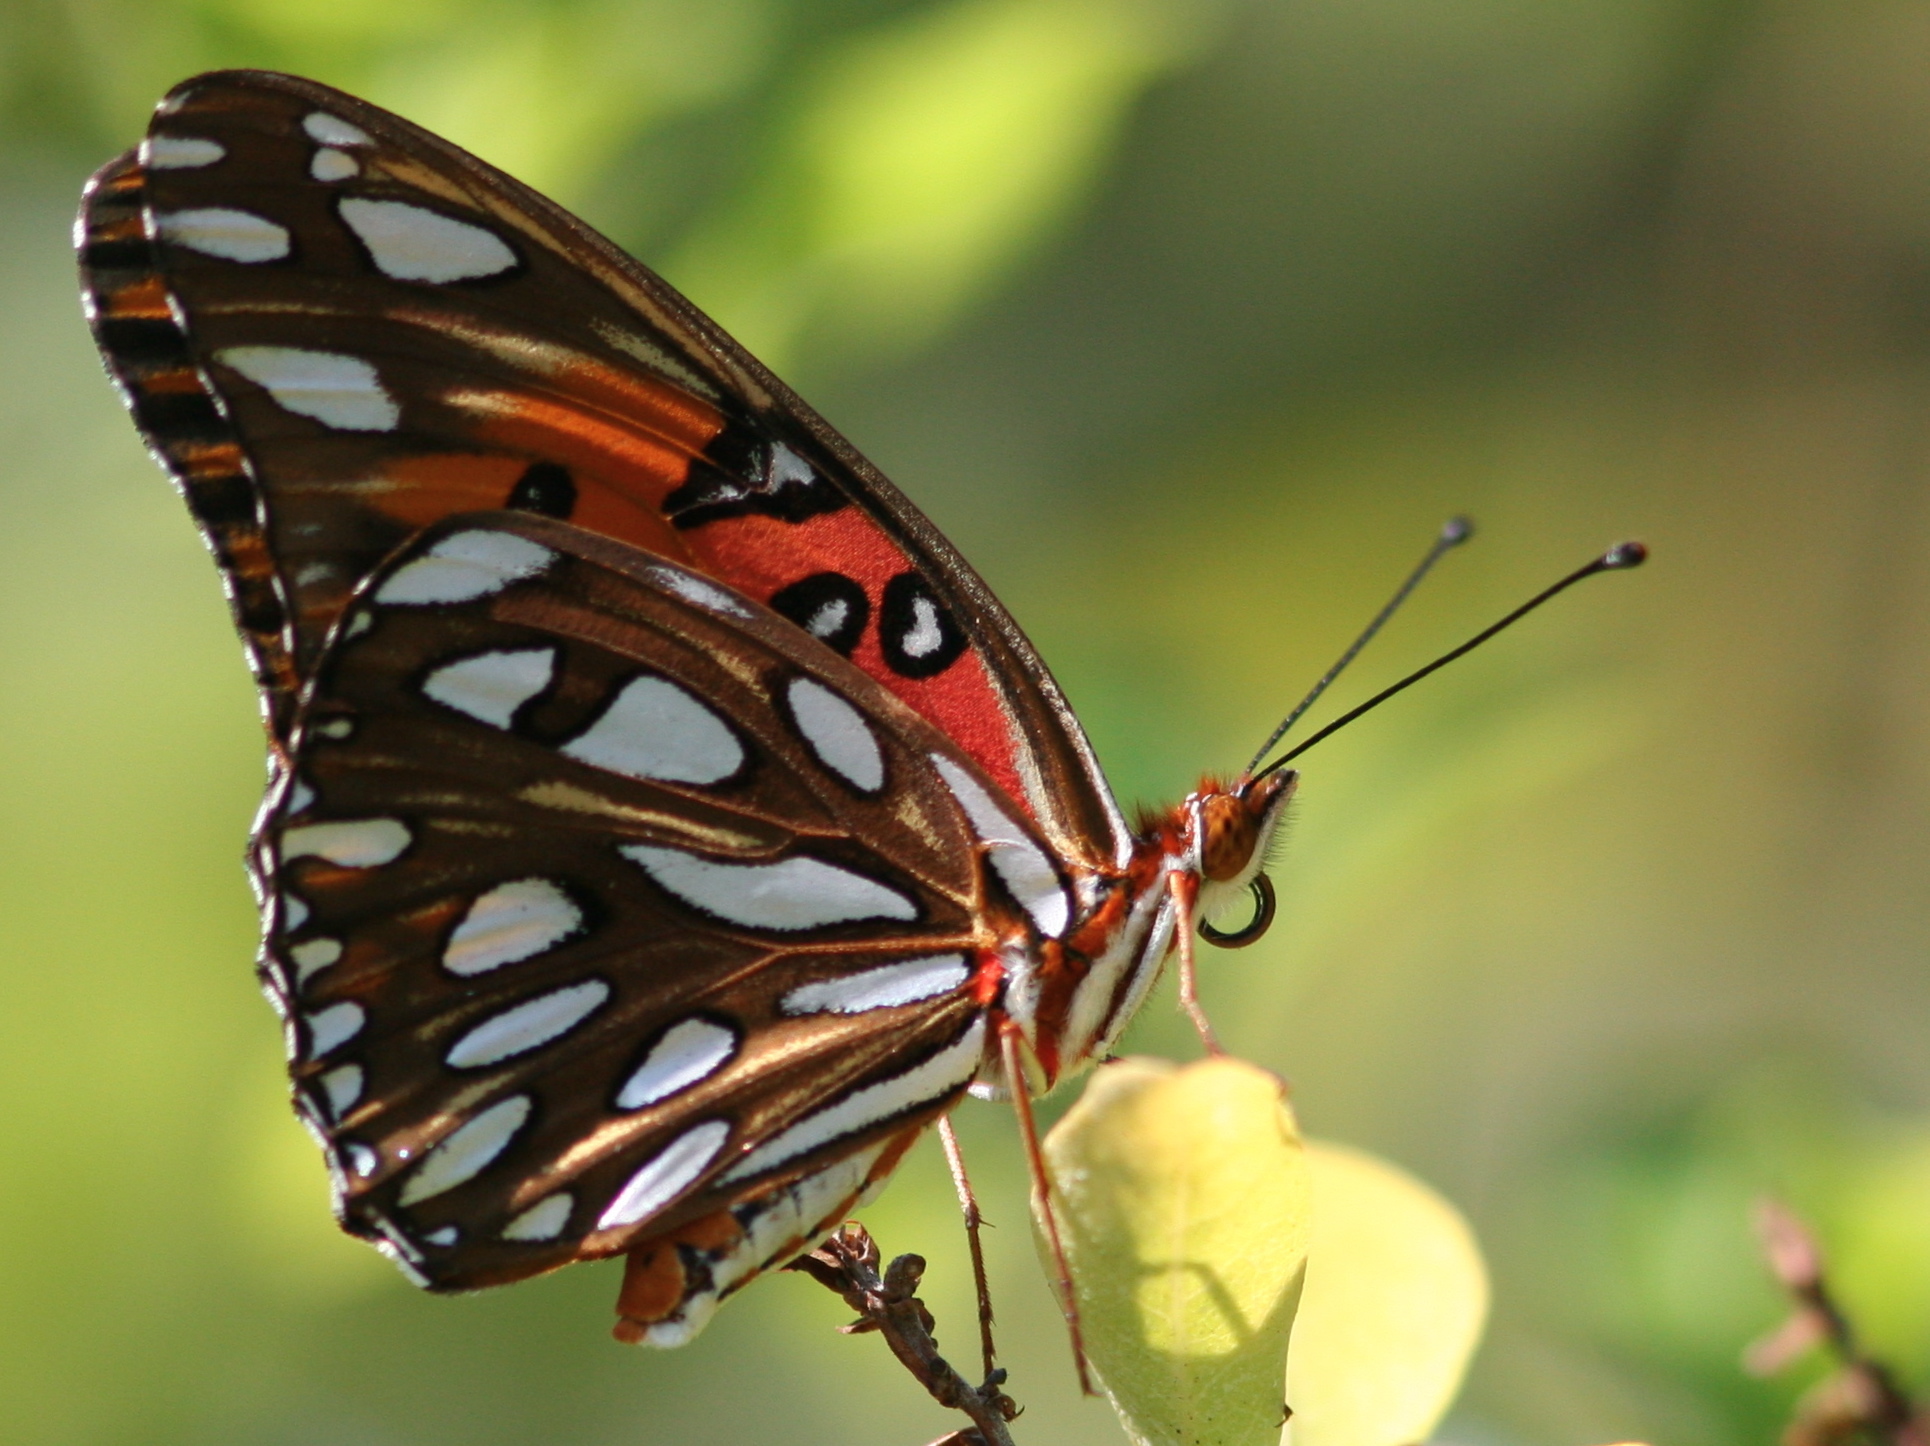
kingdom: Animalia
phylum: Arthropoda
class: Insecta
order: Lepidoptera
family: Nymphalidae
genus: Dione
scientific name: Dione vanillae
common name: Gulf fritillary
